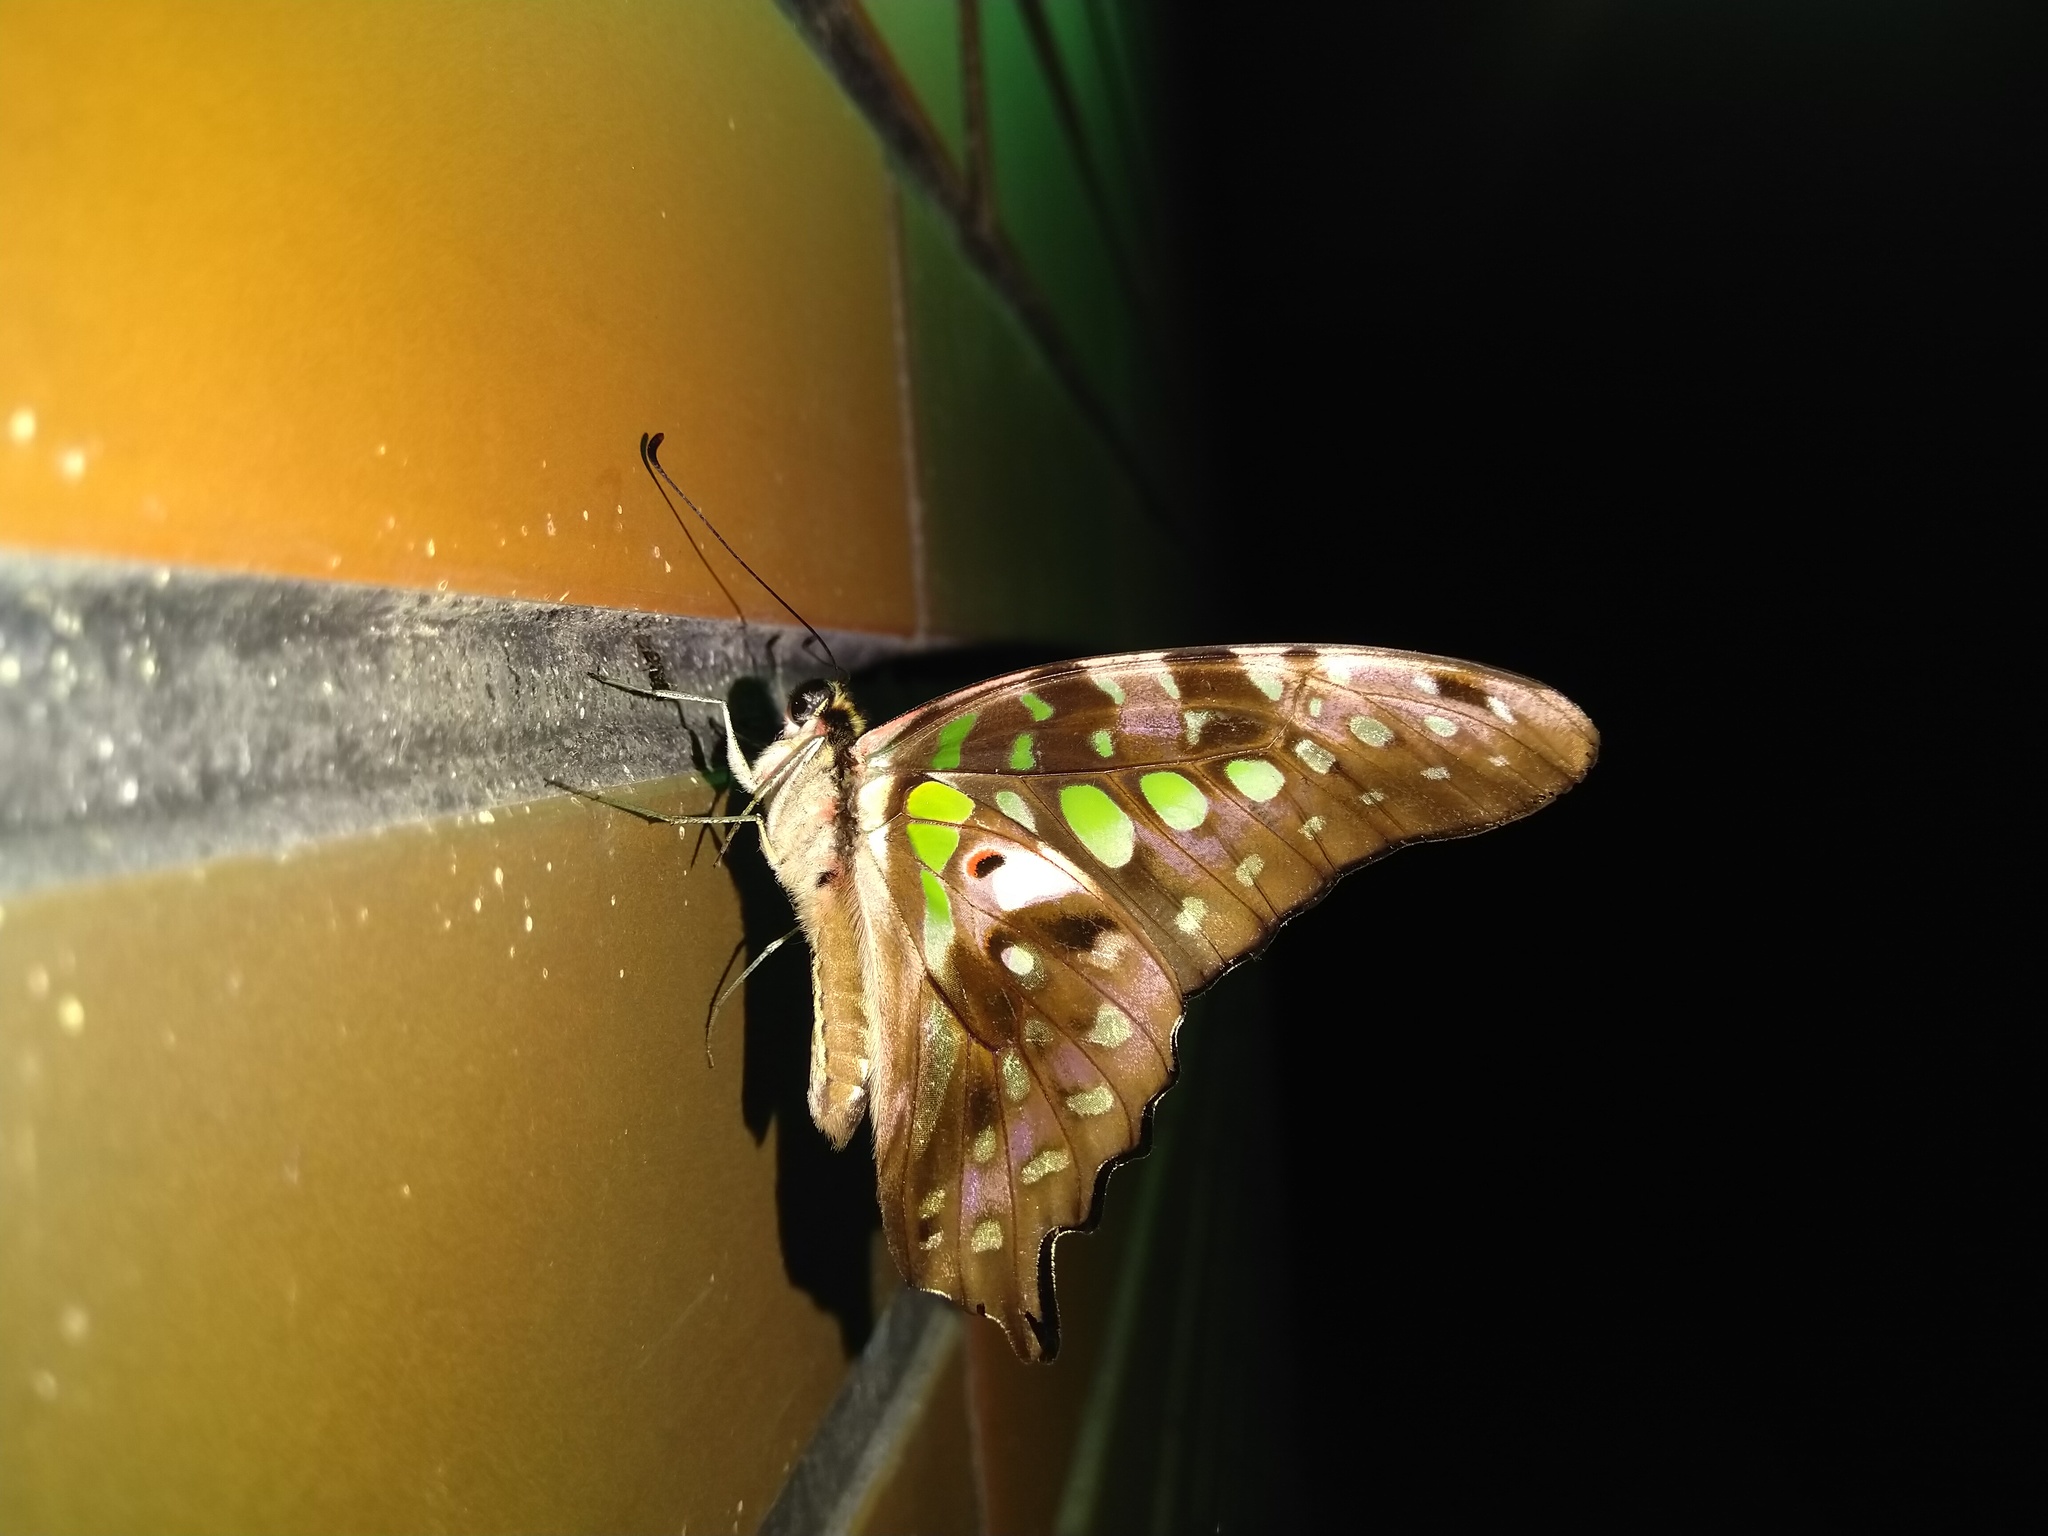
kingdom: Animalia
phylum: Arthropoda
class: Insecta
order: Lepidoptera
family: Papilionidae
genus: Graphium
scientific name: Graphium agamemnon
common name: Tailed jay
